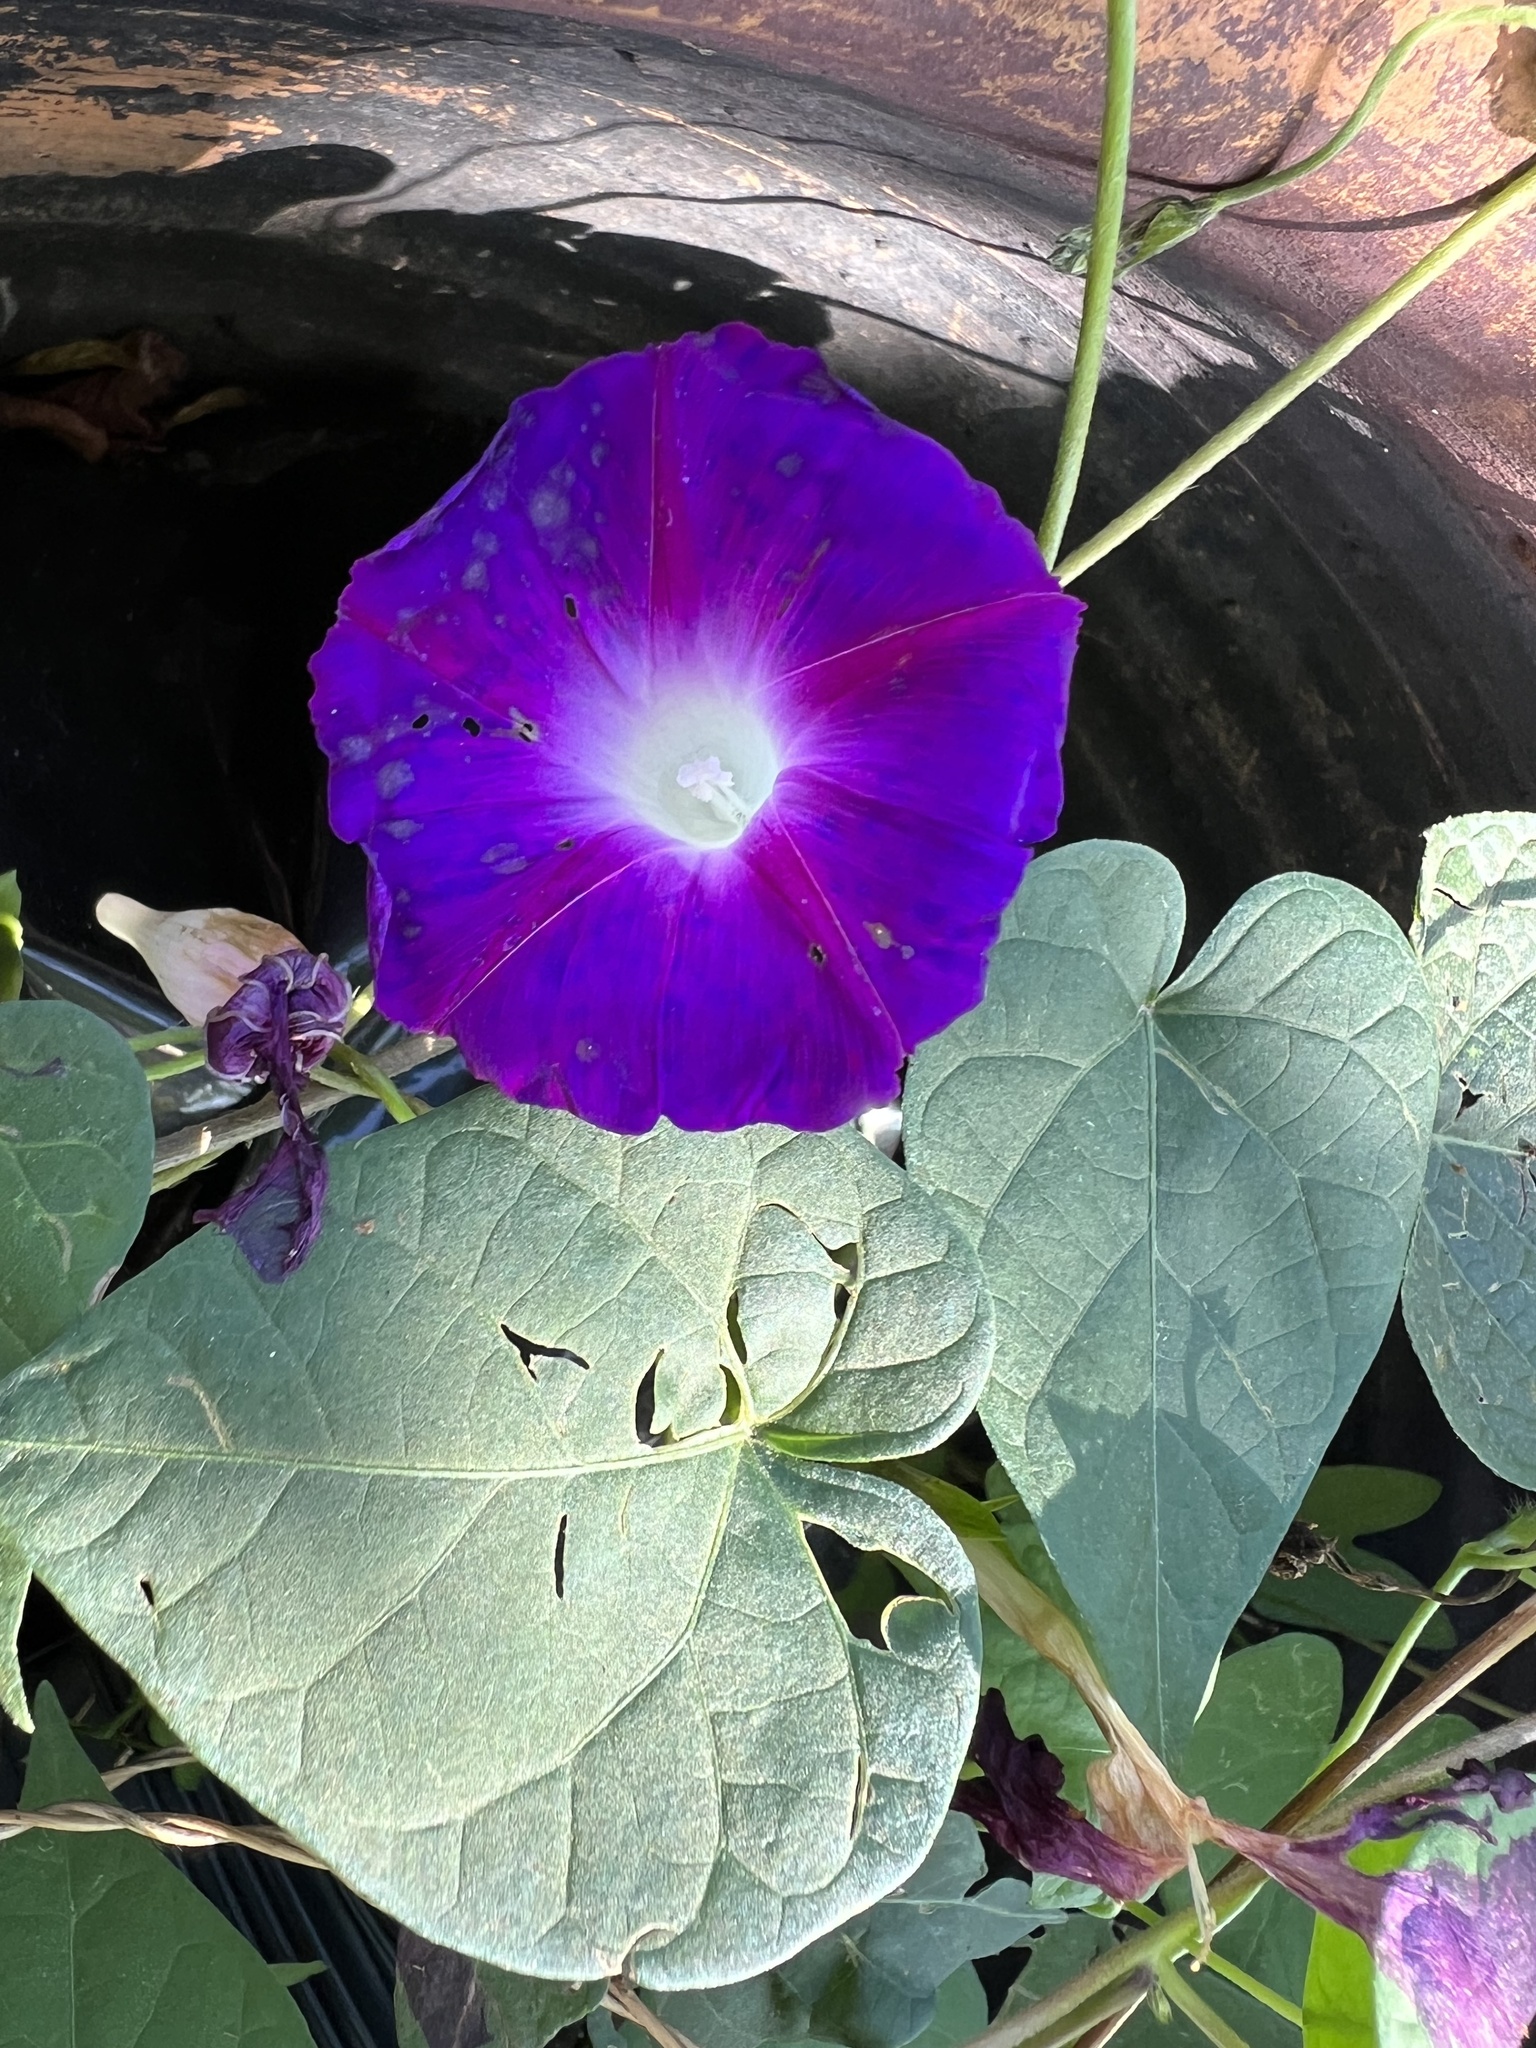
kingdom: Plantae
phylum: Tracheophyta
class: Magnoliopsida
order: Solanales
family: Convolvulaceae
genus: Ipomoea
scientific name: Ipomoea purpurea
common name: Common morning-glory
